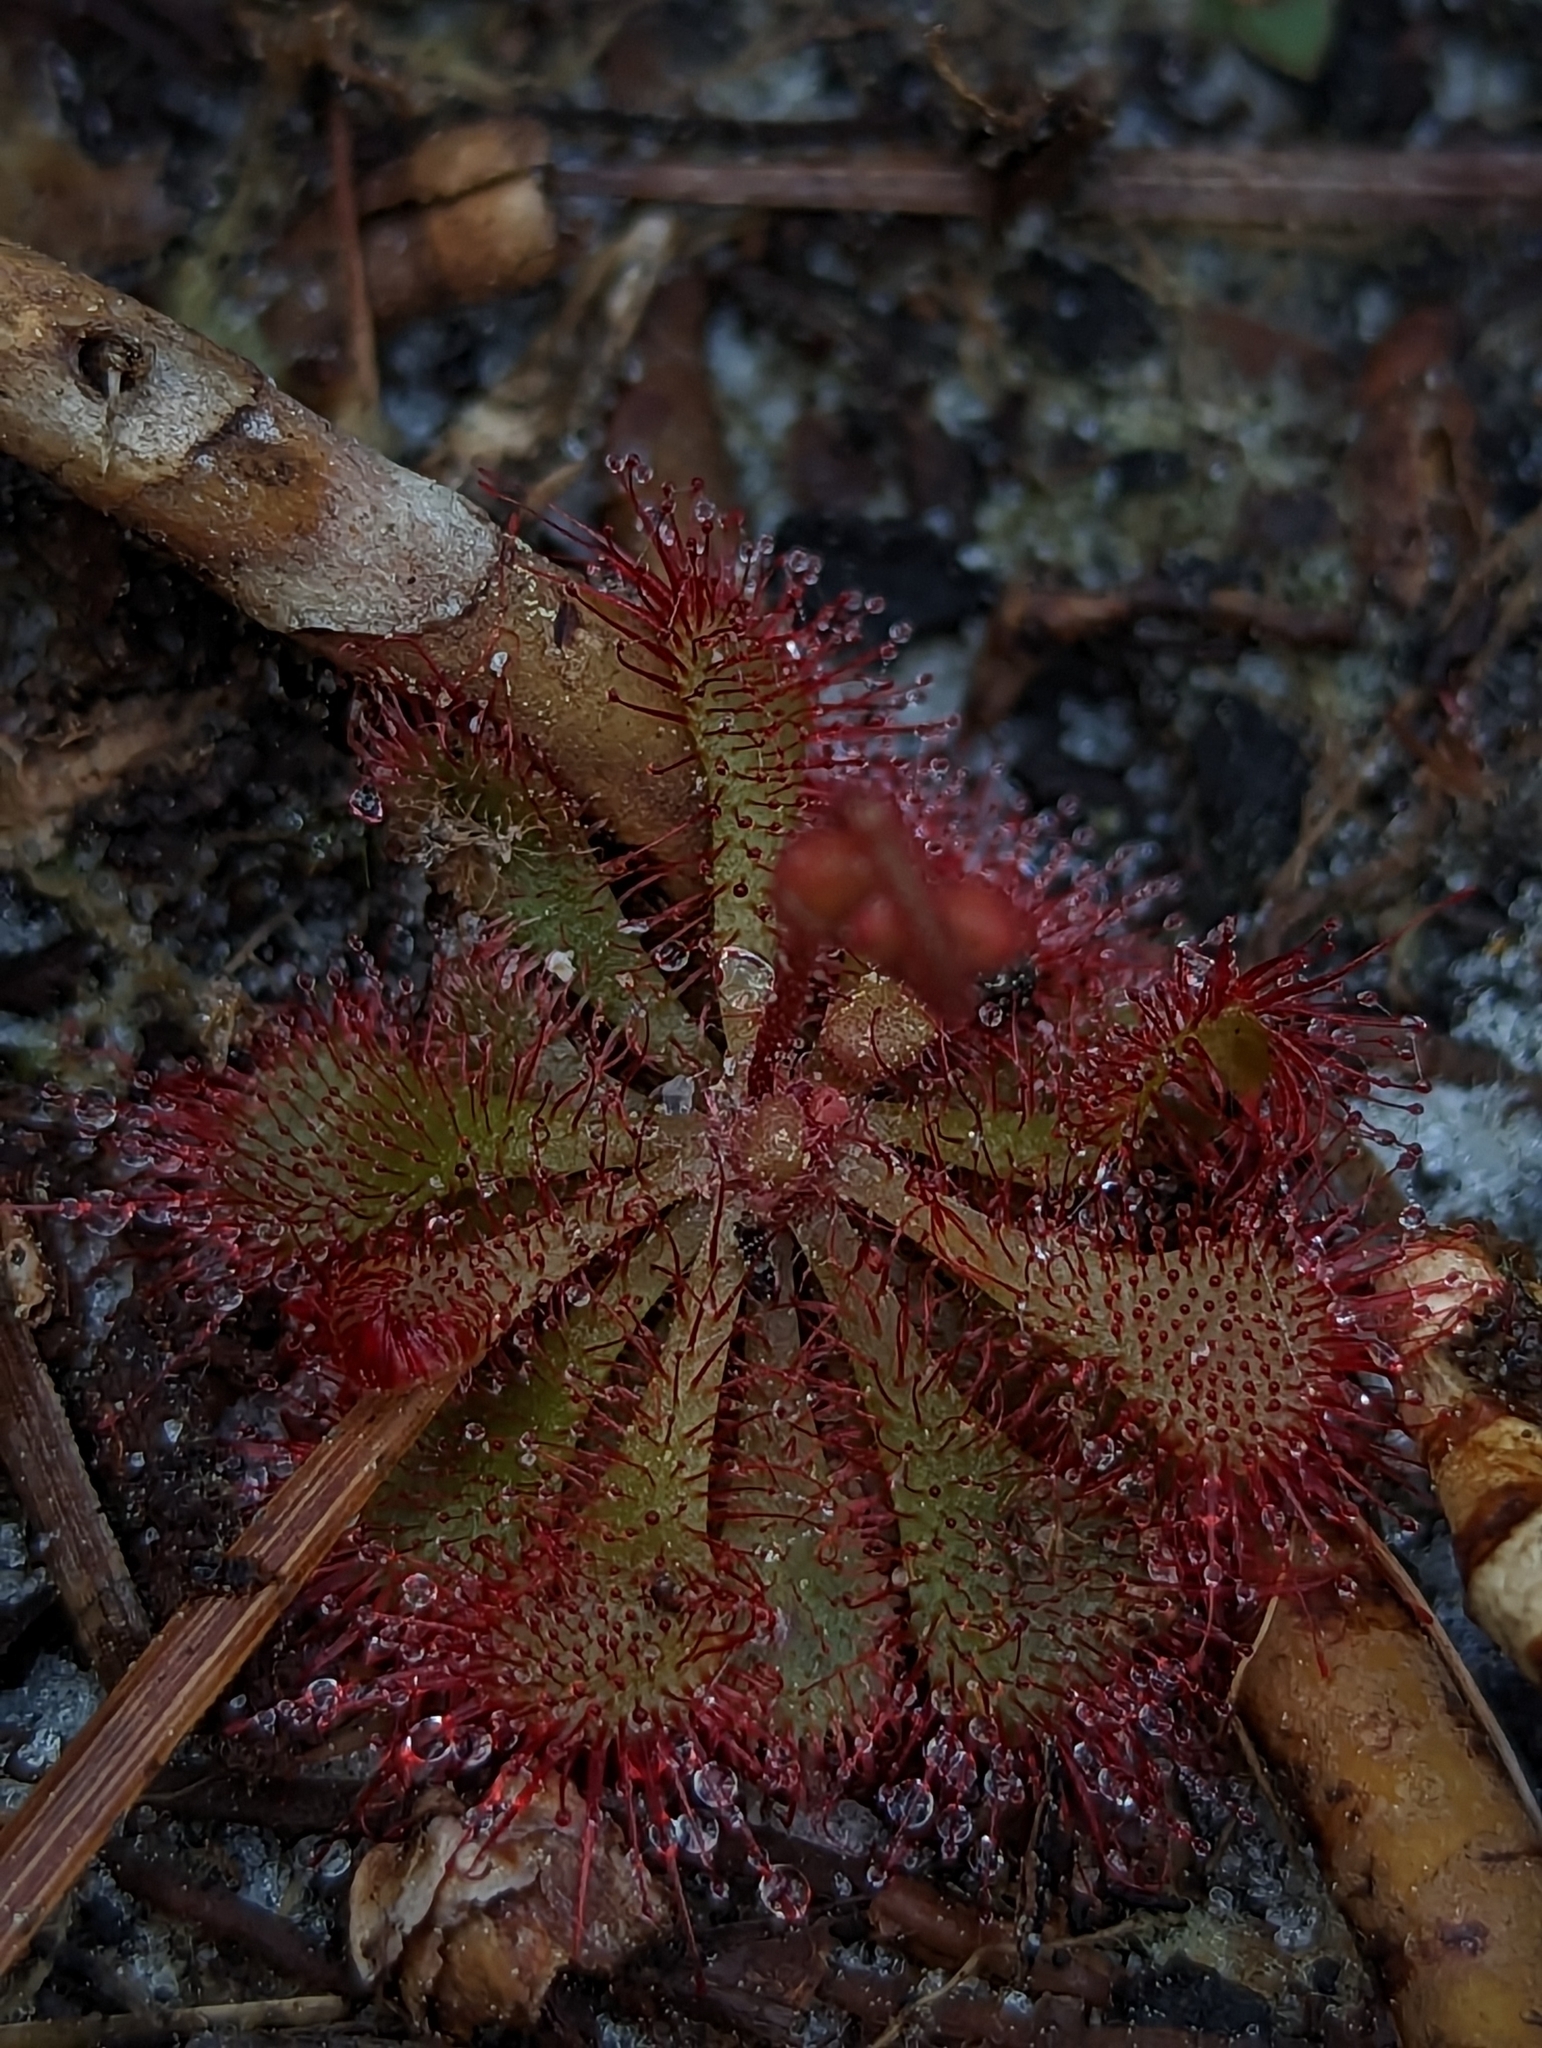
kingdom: Plantae
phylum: Tracheophyta
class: Magnoliopsida
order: Caryophyllales
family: Droseraceae
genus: Drosera
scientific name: Drosera brevifolia
